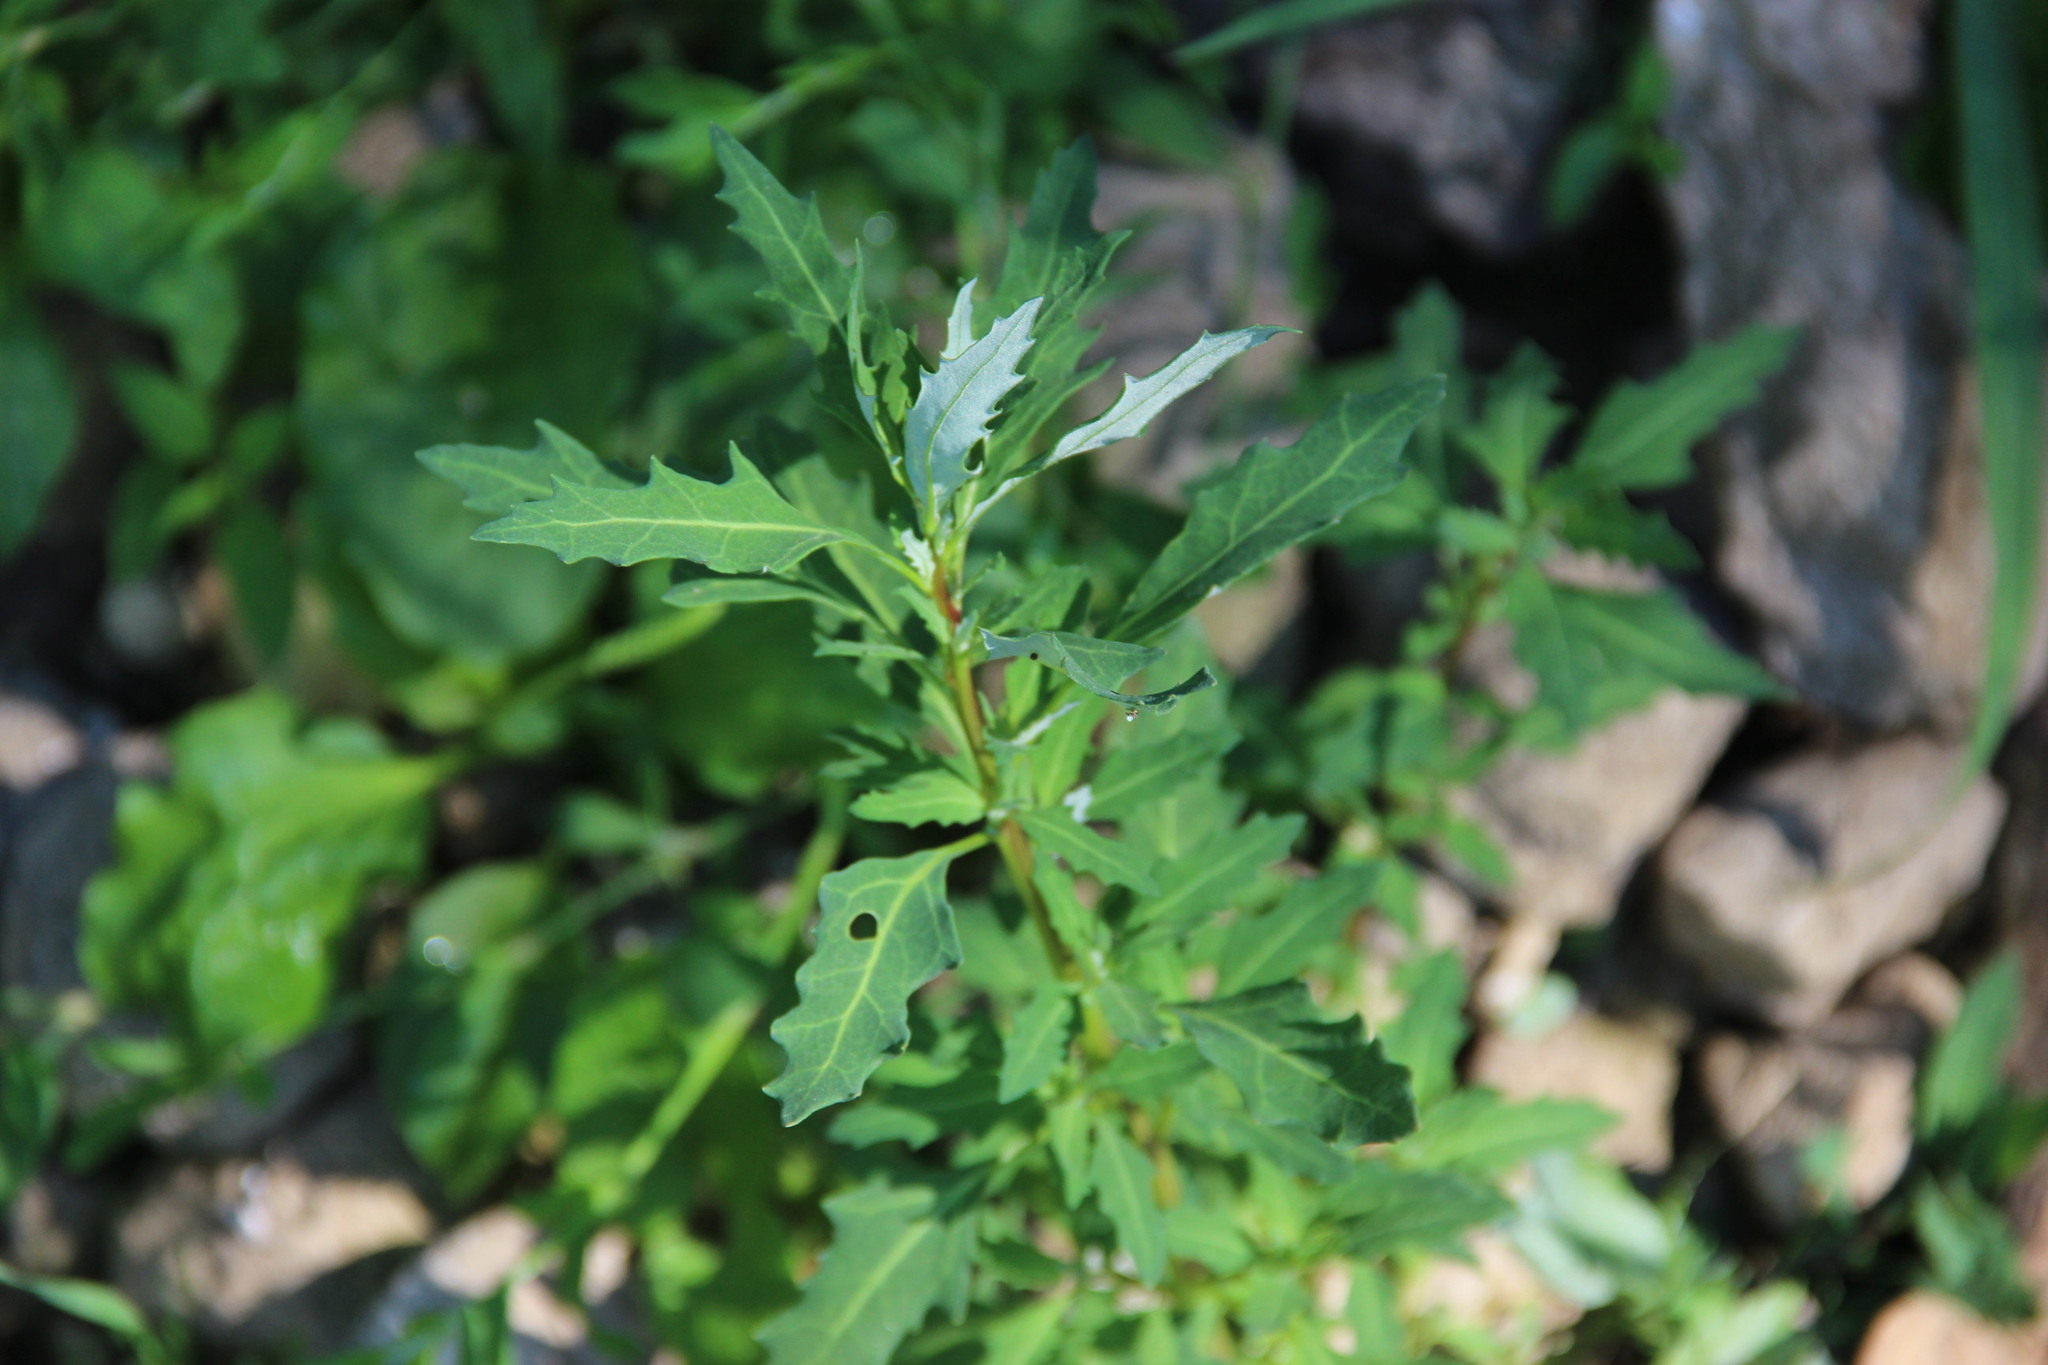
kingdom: Plantae
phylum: Tracheophyta
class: Magnoliopsida
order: Caryophyllales
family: Amaranthaceae
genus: Oxybasis
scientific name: Oxybasis glauca
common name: Glaucous goosefoot
